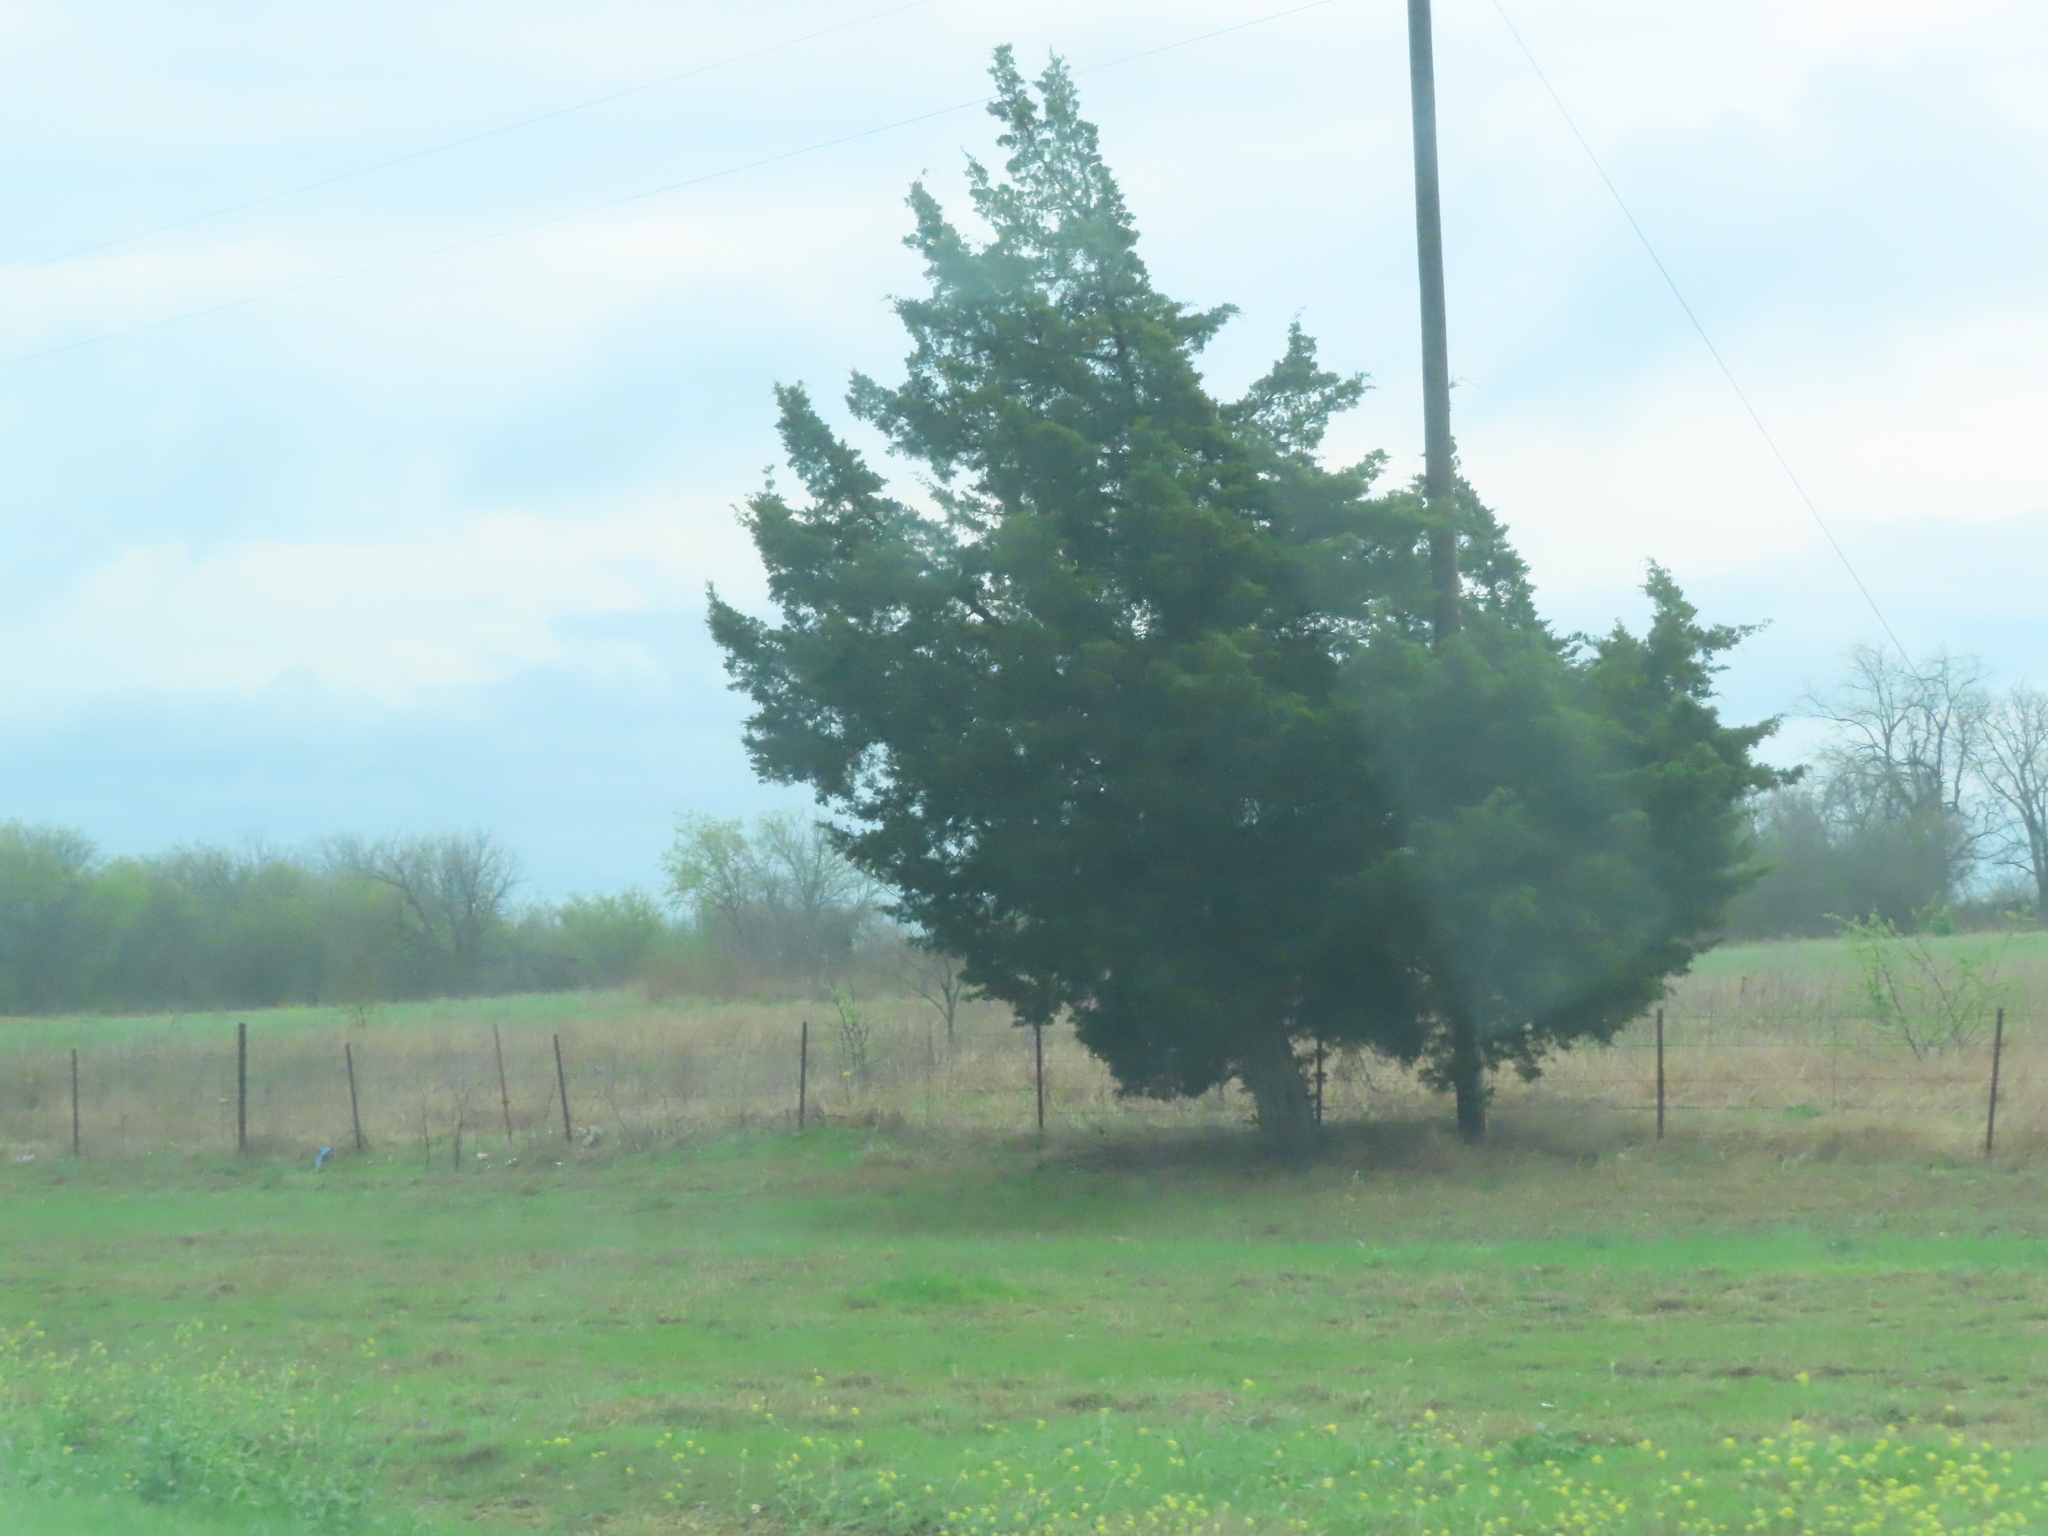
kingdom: Plantae
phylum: Tracheophyta
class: Pinopsida
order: Pinales
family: Cupressaceae
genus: Juniperus
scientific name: Juniperus virginiana
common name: Red juniper
